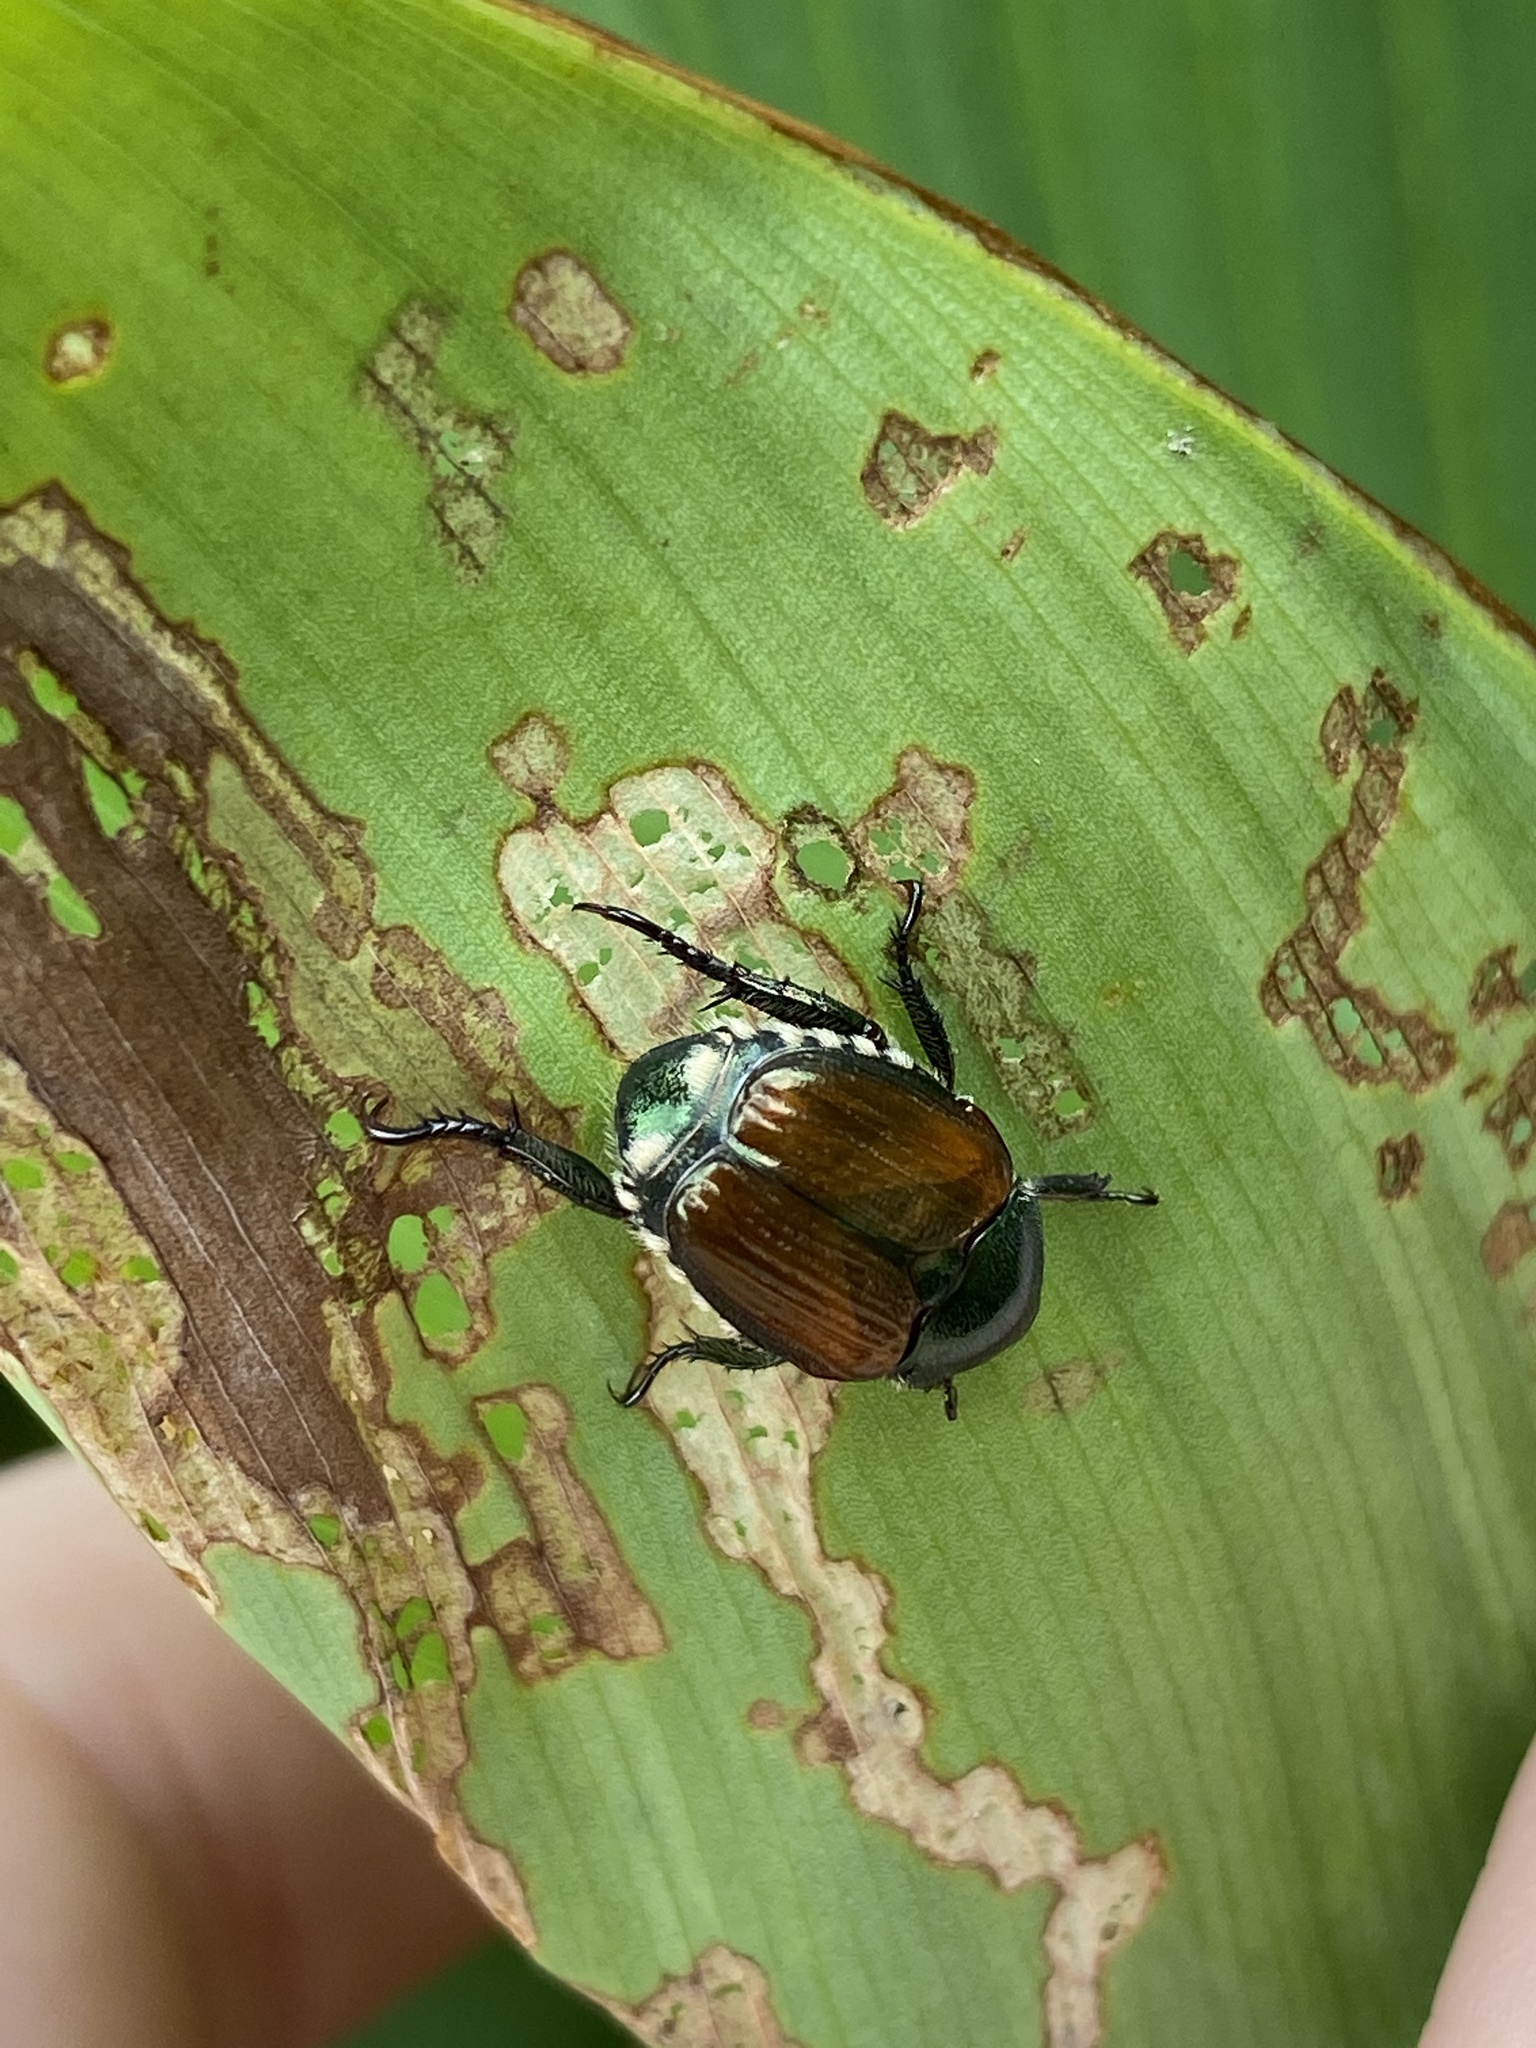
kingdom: Animalia
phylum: Arthropoda
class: Insecta
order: Coleoptera
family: Scarabaeidae
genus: Popillia
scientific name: Popillia japonica
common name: Japanese beetle
